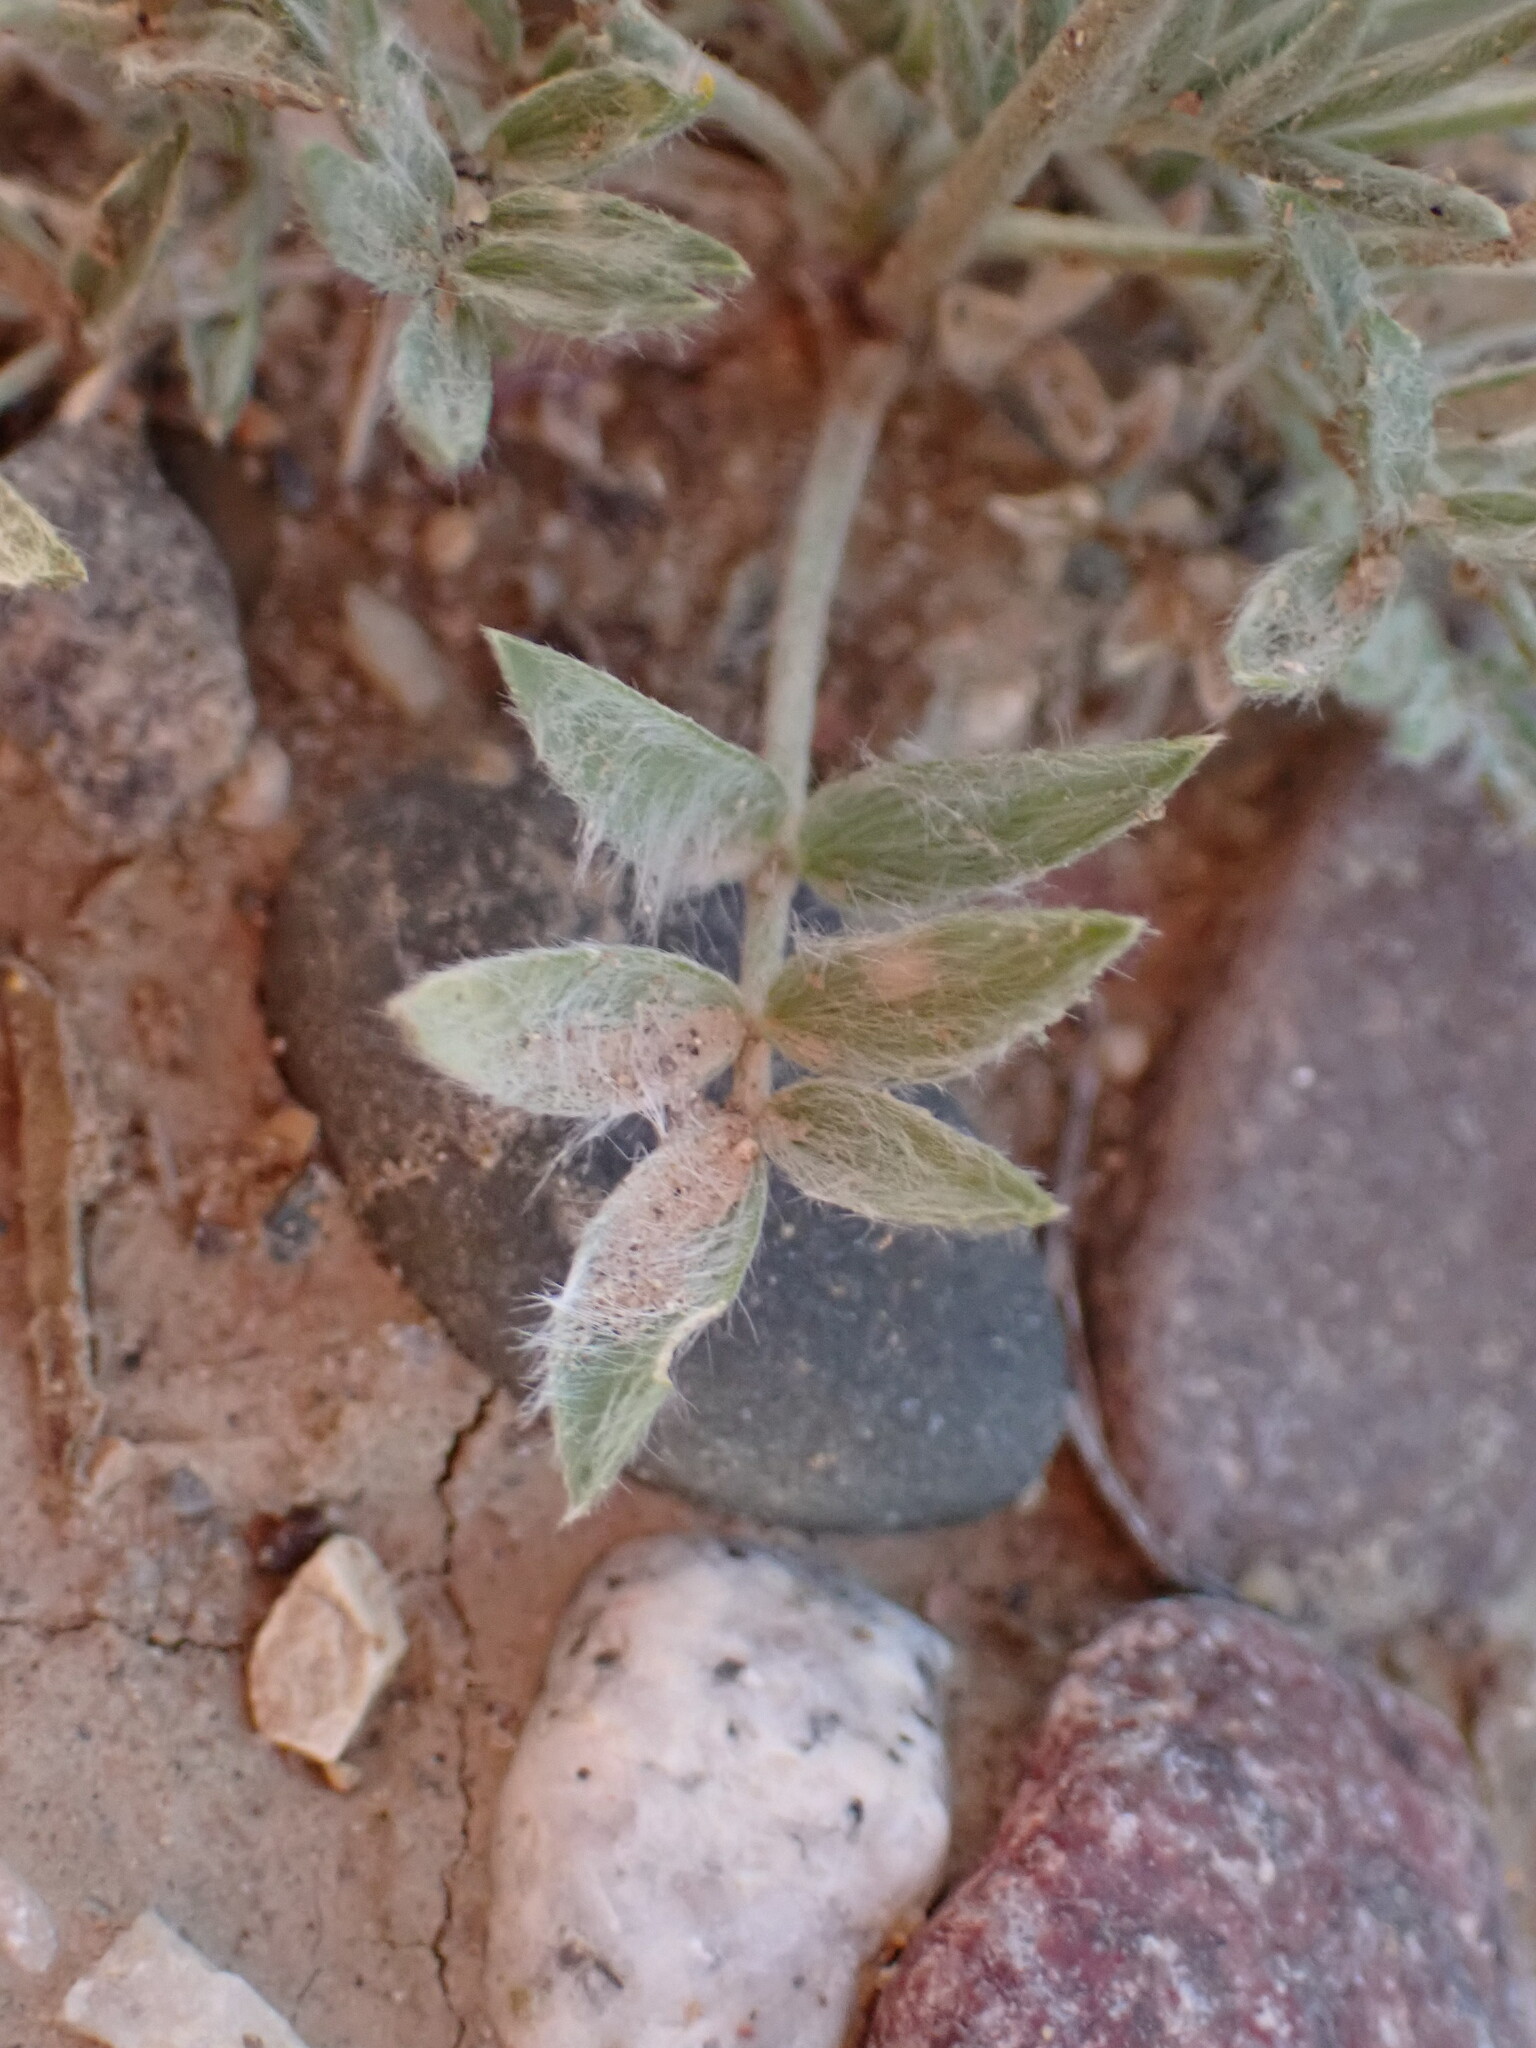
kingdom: Plantae
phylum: Tracheophyta
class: Magnoliopsida
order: Fabales
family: Fabaceae
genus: Oxytropis
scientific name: Oxytropis besseyi
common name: Bessey's locoweed
